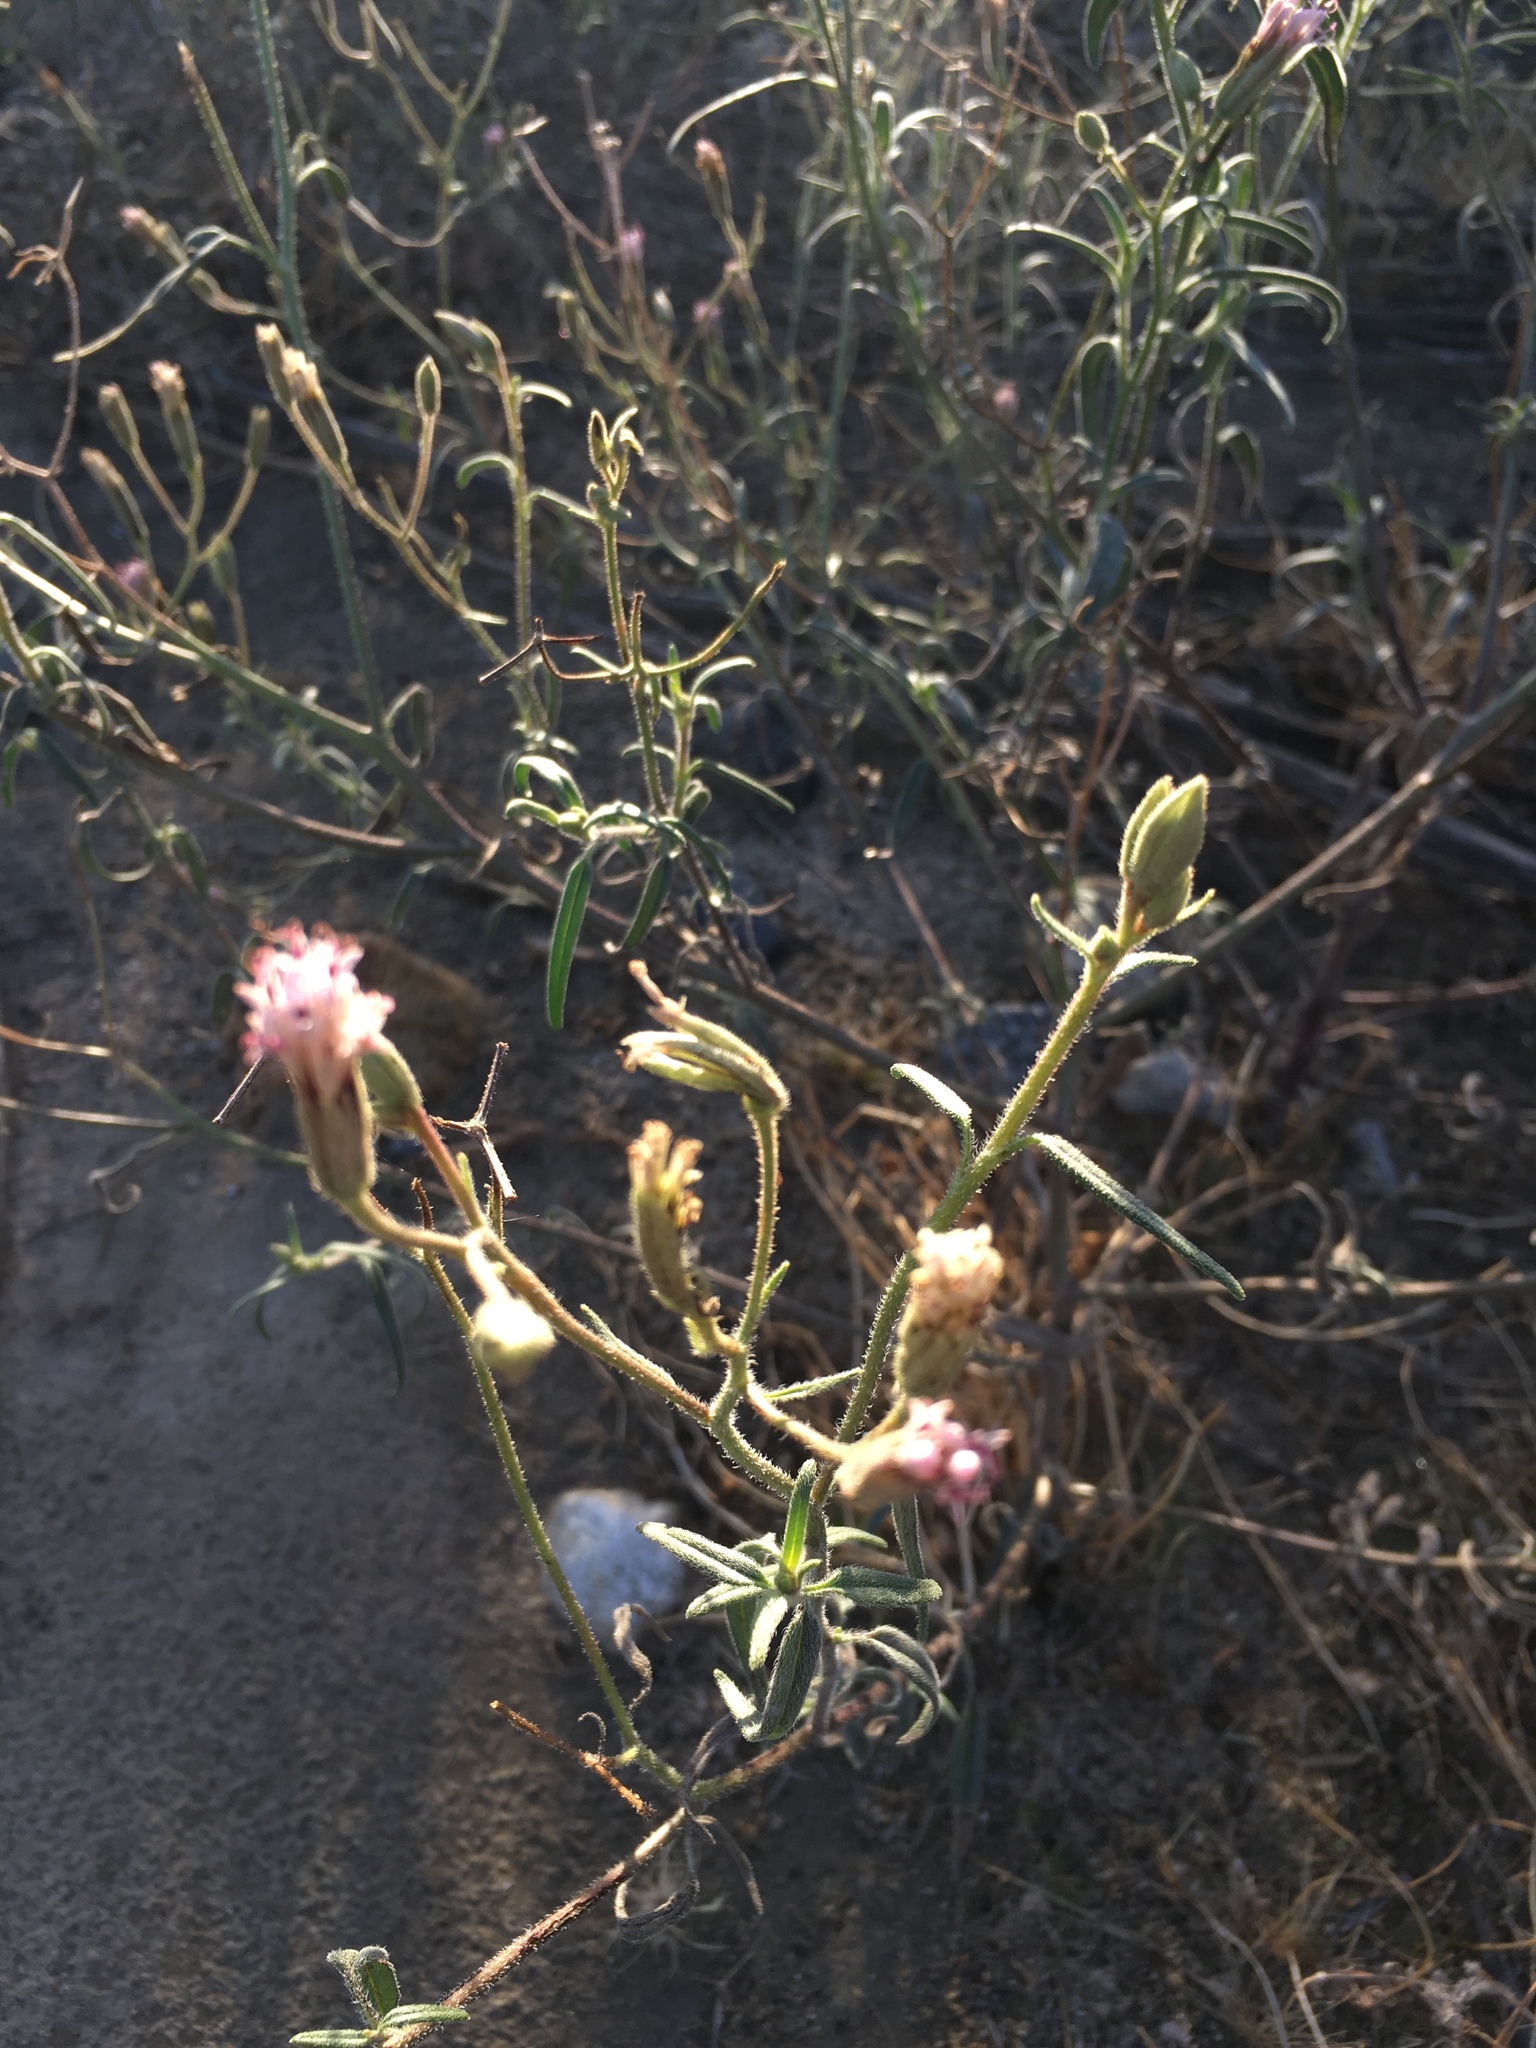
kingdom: Plantae
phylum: Tracheophyta
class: Magnoliopsida
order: Asterales
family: Asteraceae
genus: Palafoxia
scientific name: Palafoxia arida
